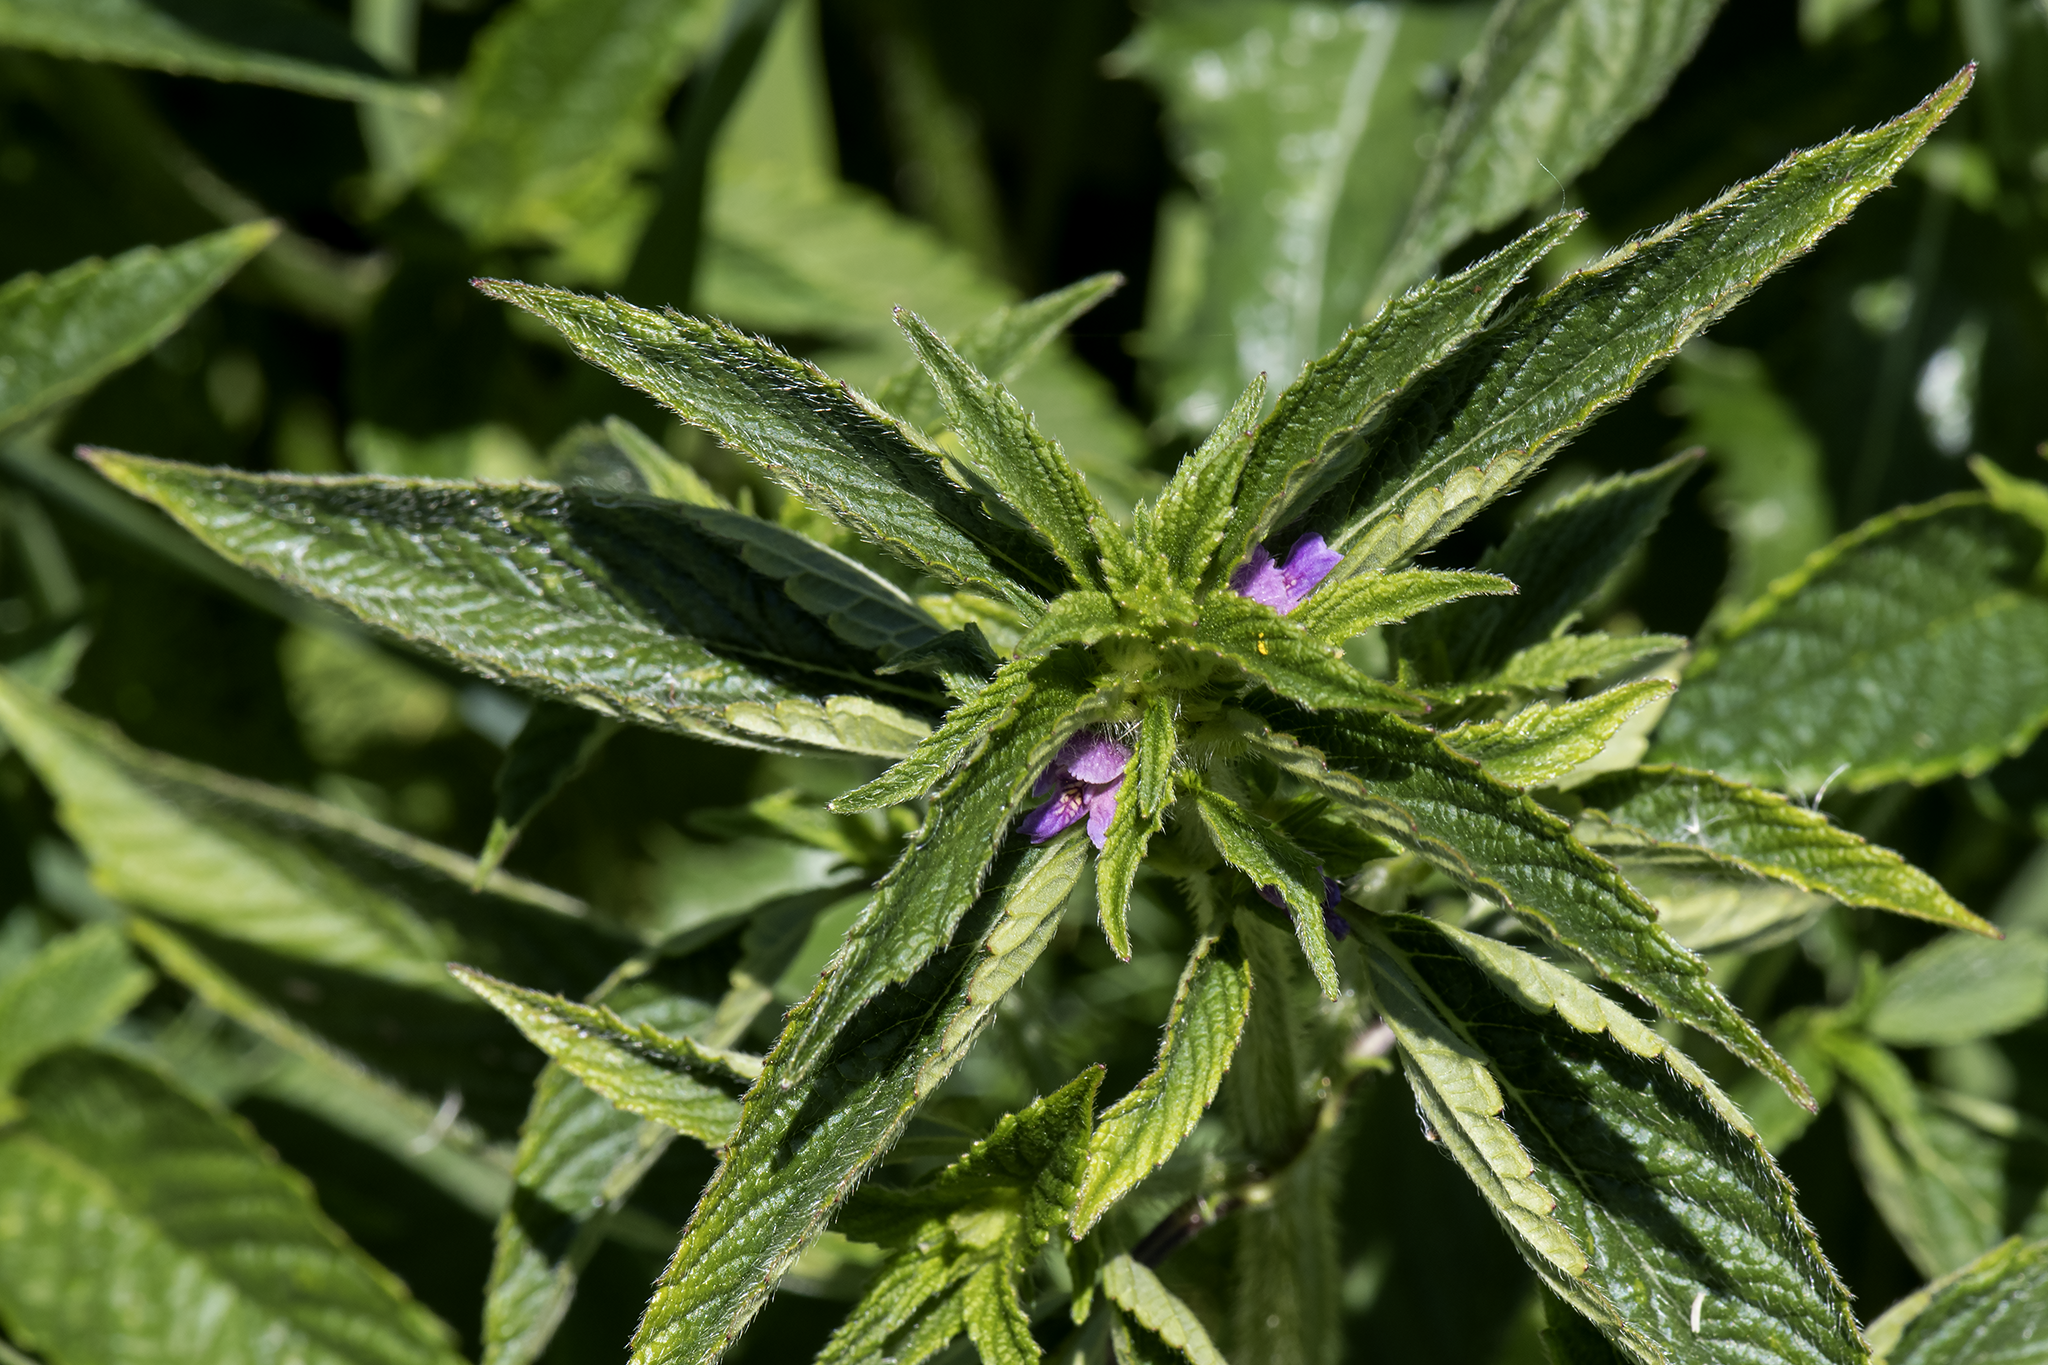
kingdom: Plantae
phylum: Tracheophyta
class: Magnoliopsida
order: Lamiales
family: Lamiaceae
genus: Galeopsis
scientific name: Galeopsis bifida
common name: Bifid hemp-nettle
